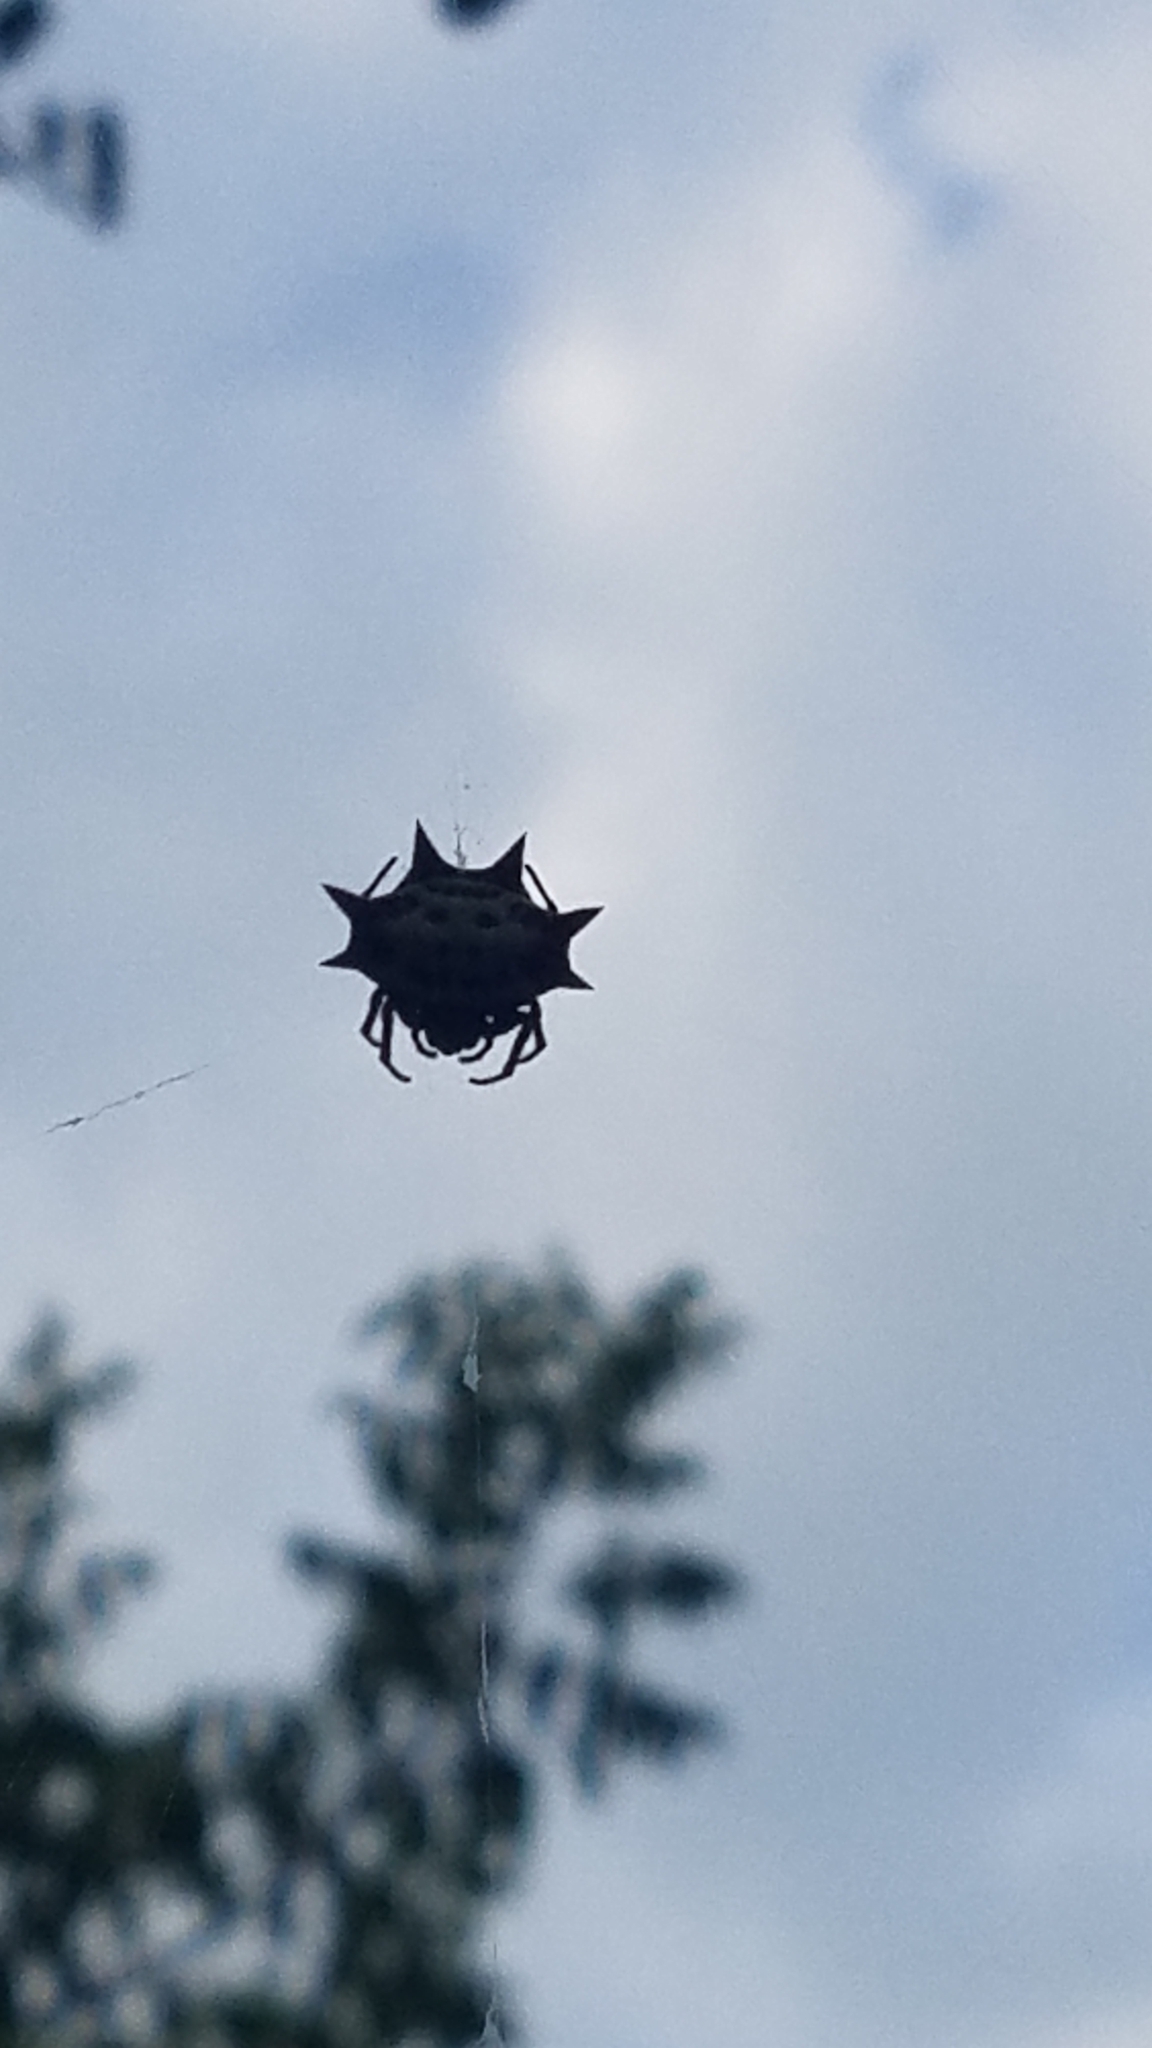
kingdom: Animalia
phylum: Arthropoda
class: Arachnida
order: Araneae
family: Araneidae
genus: Gasteracantha
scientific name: Gasteracantha cancriformis
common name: Orb weavers
